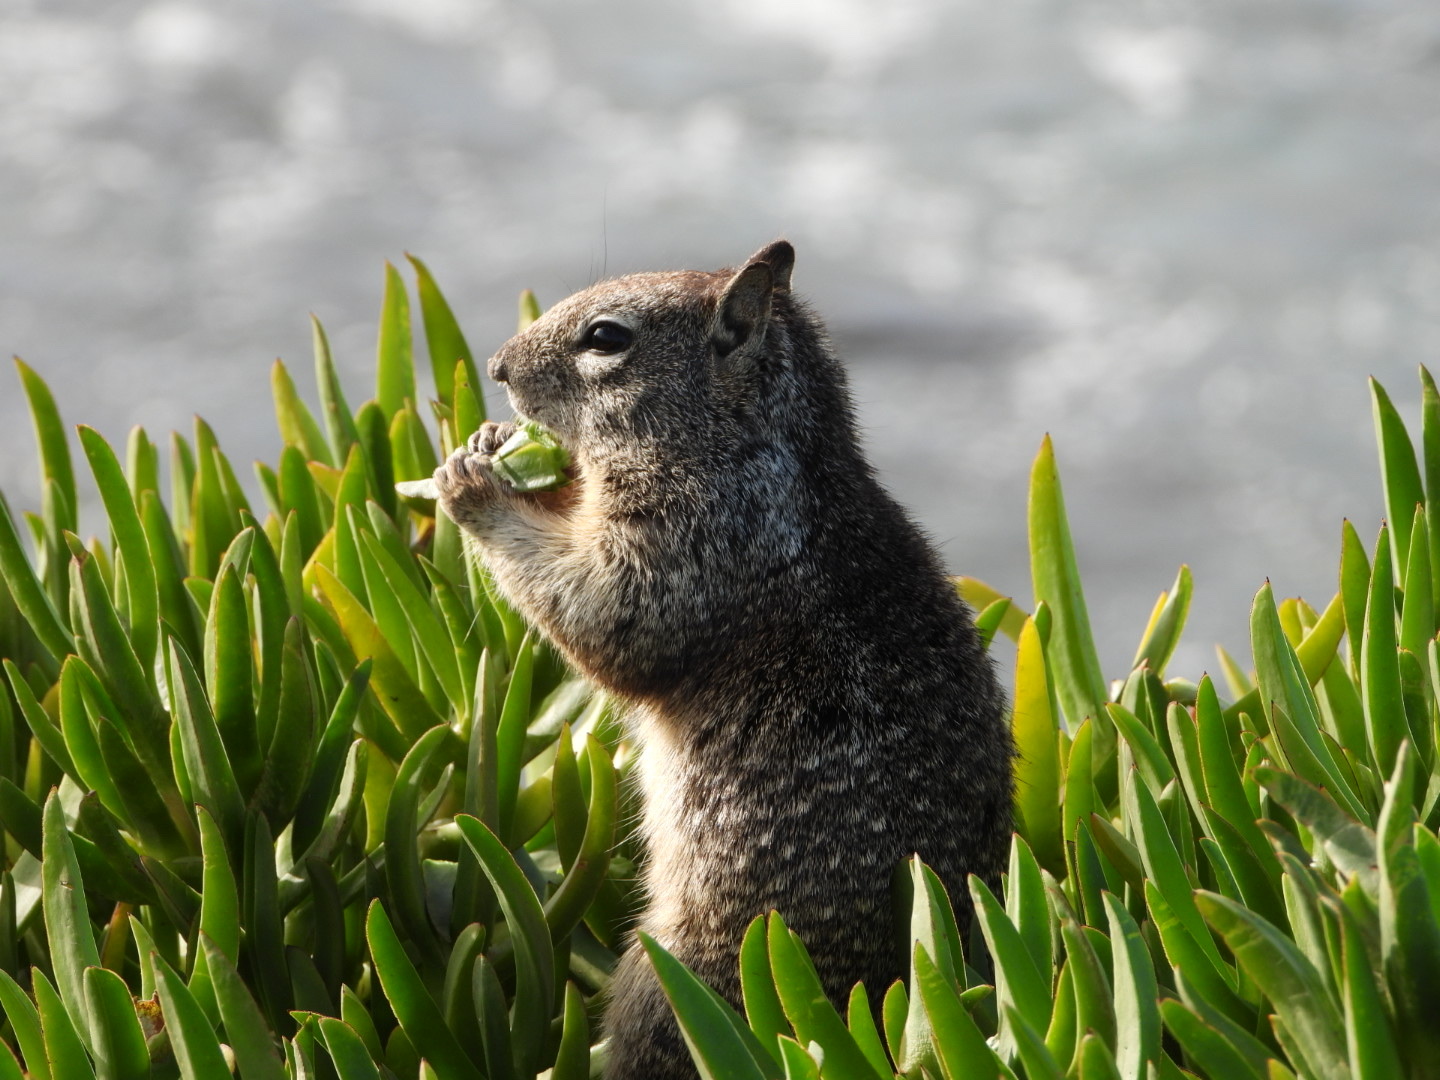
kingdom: Animalia
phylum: Chordata
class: Mammalia
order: Rodentia
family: Sciuridae
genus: Otospermophilus
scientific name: Otospermophilus beecheyi
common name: California ground squirrel
